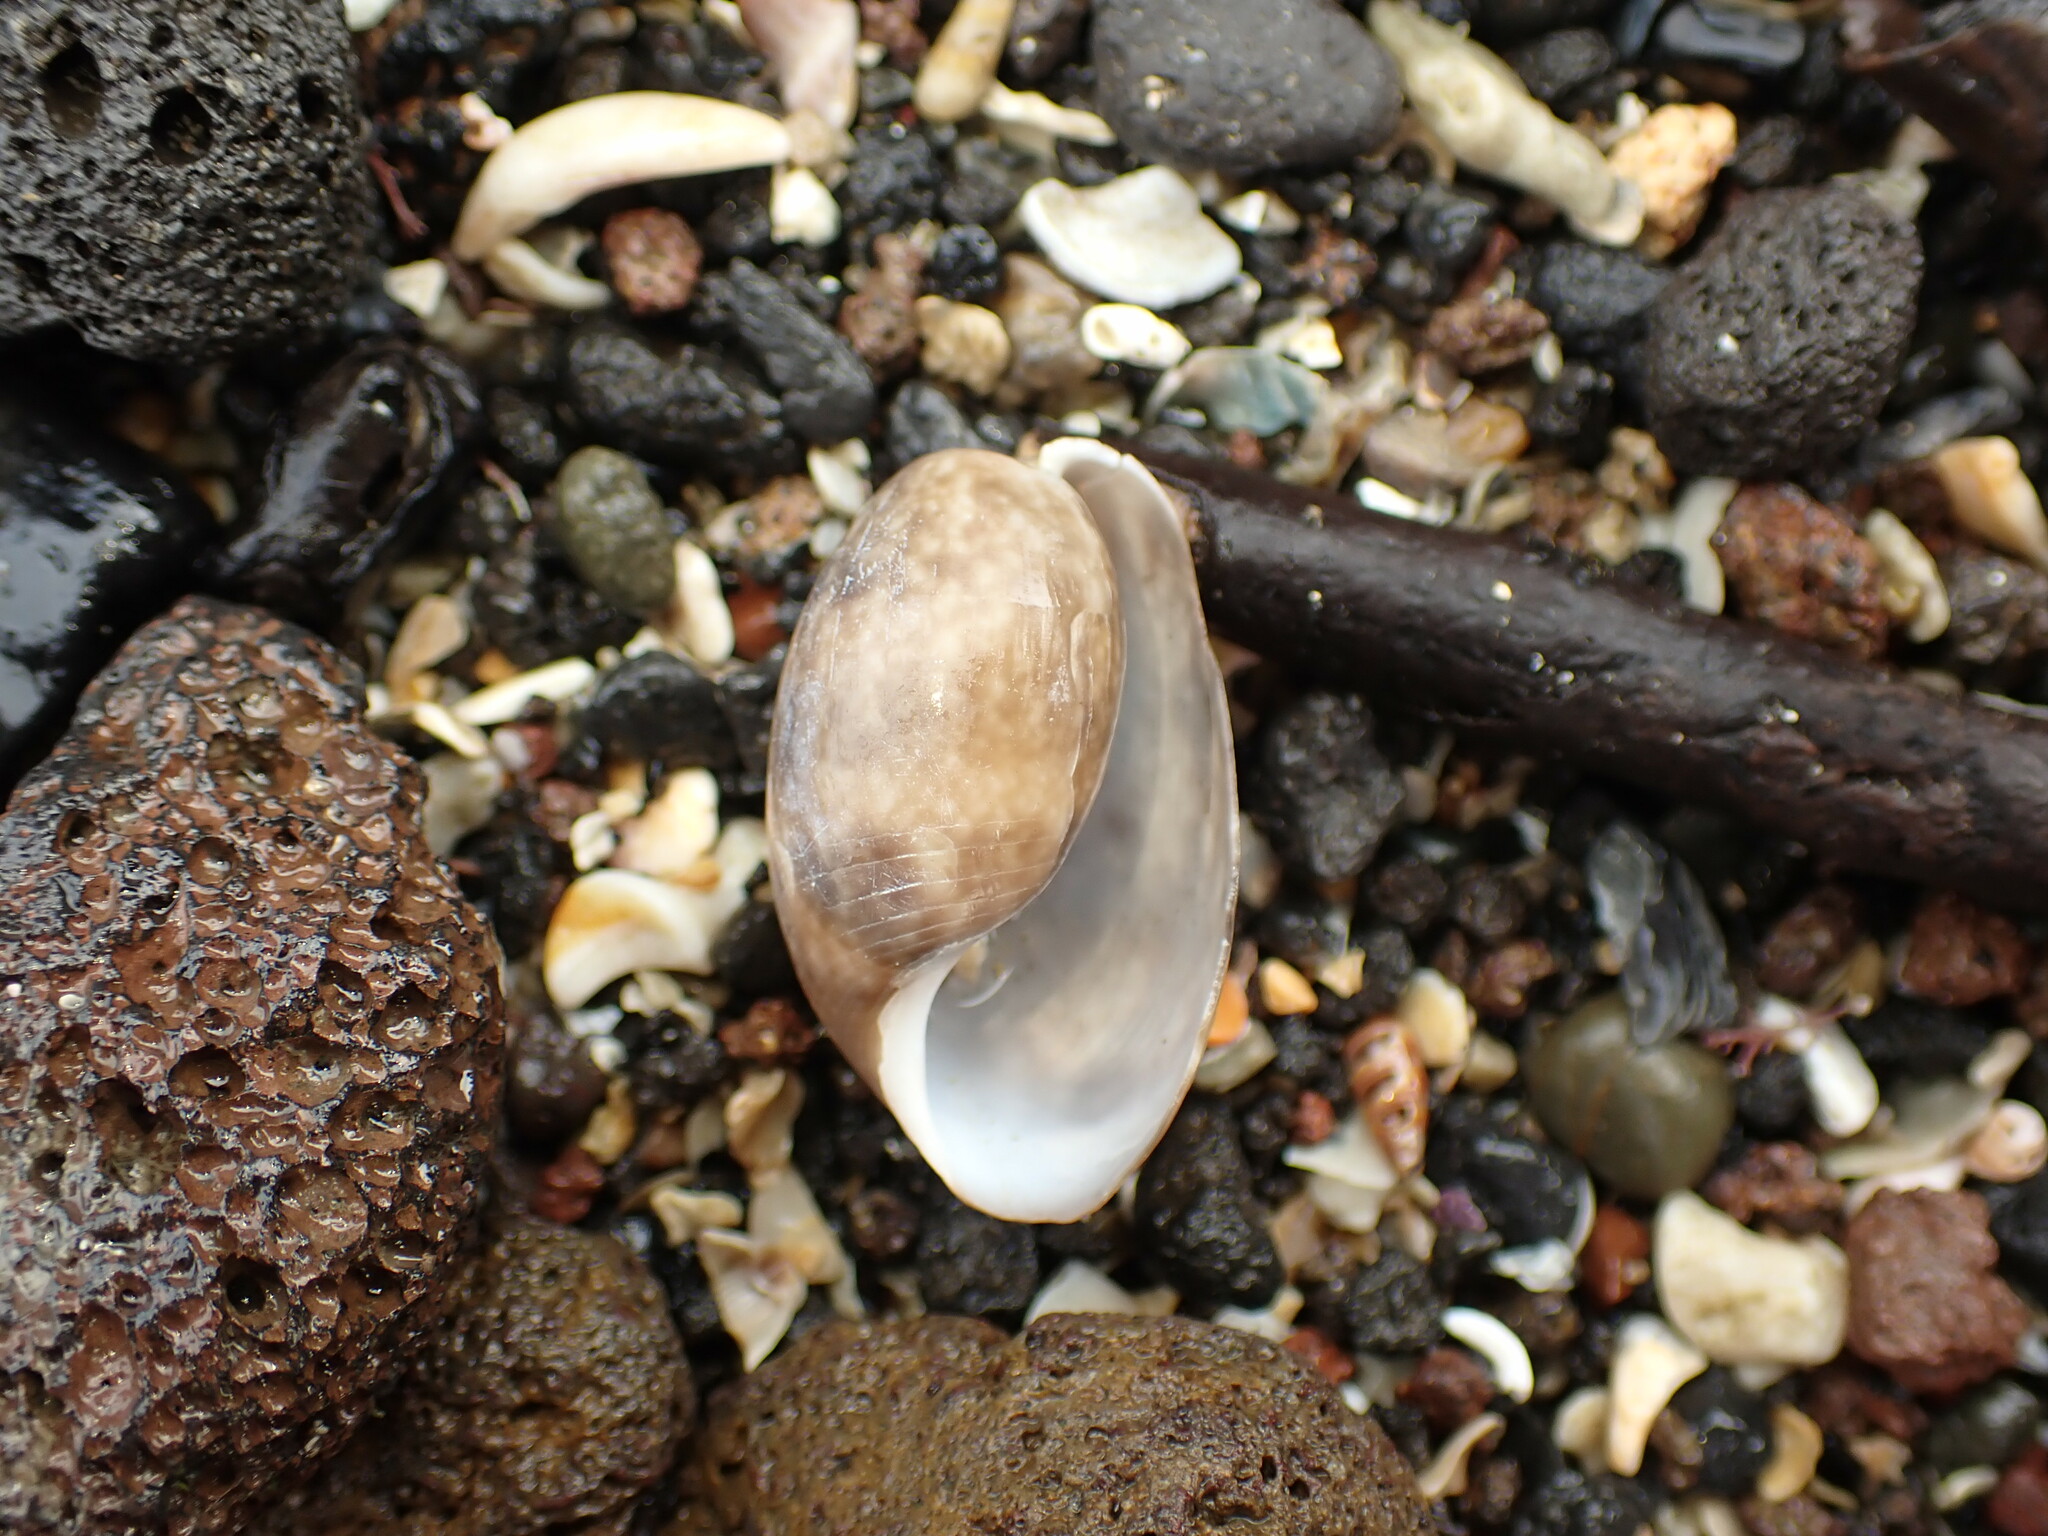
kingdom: Animalia
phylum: Mollusca
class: Gastropoda
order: Cephalaspidea
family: Bullidae
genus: Bulla
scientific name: Bulla quoyii
